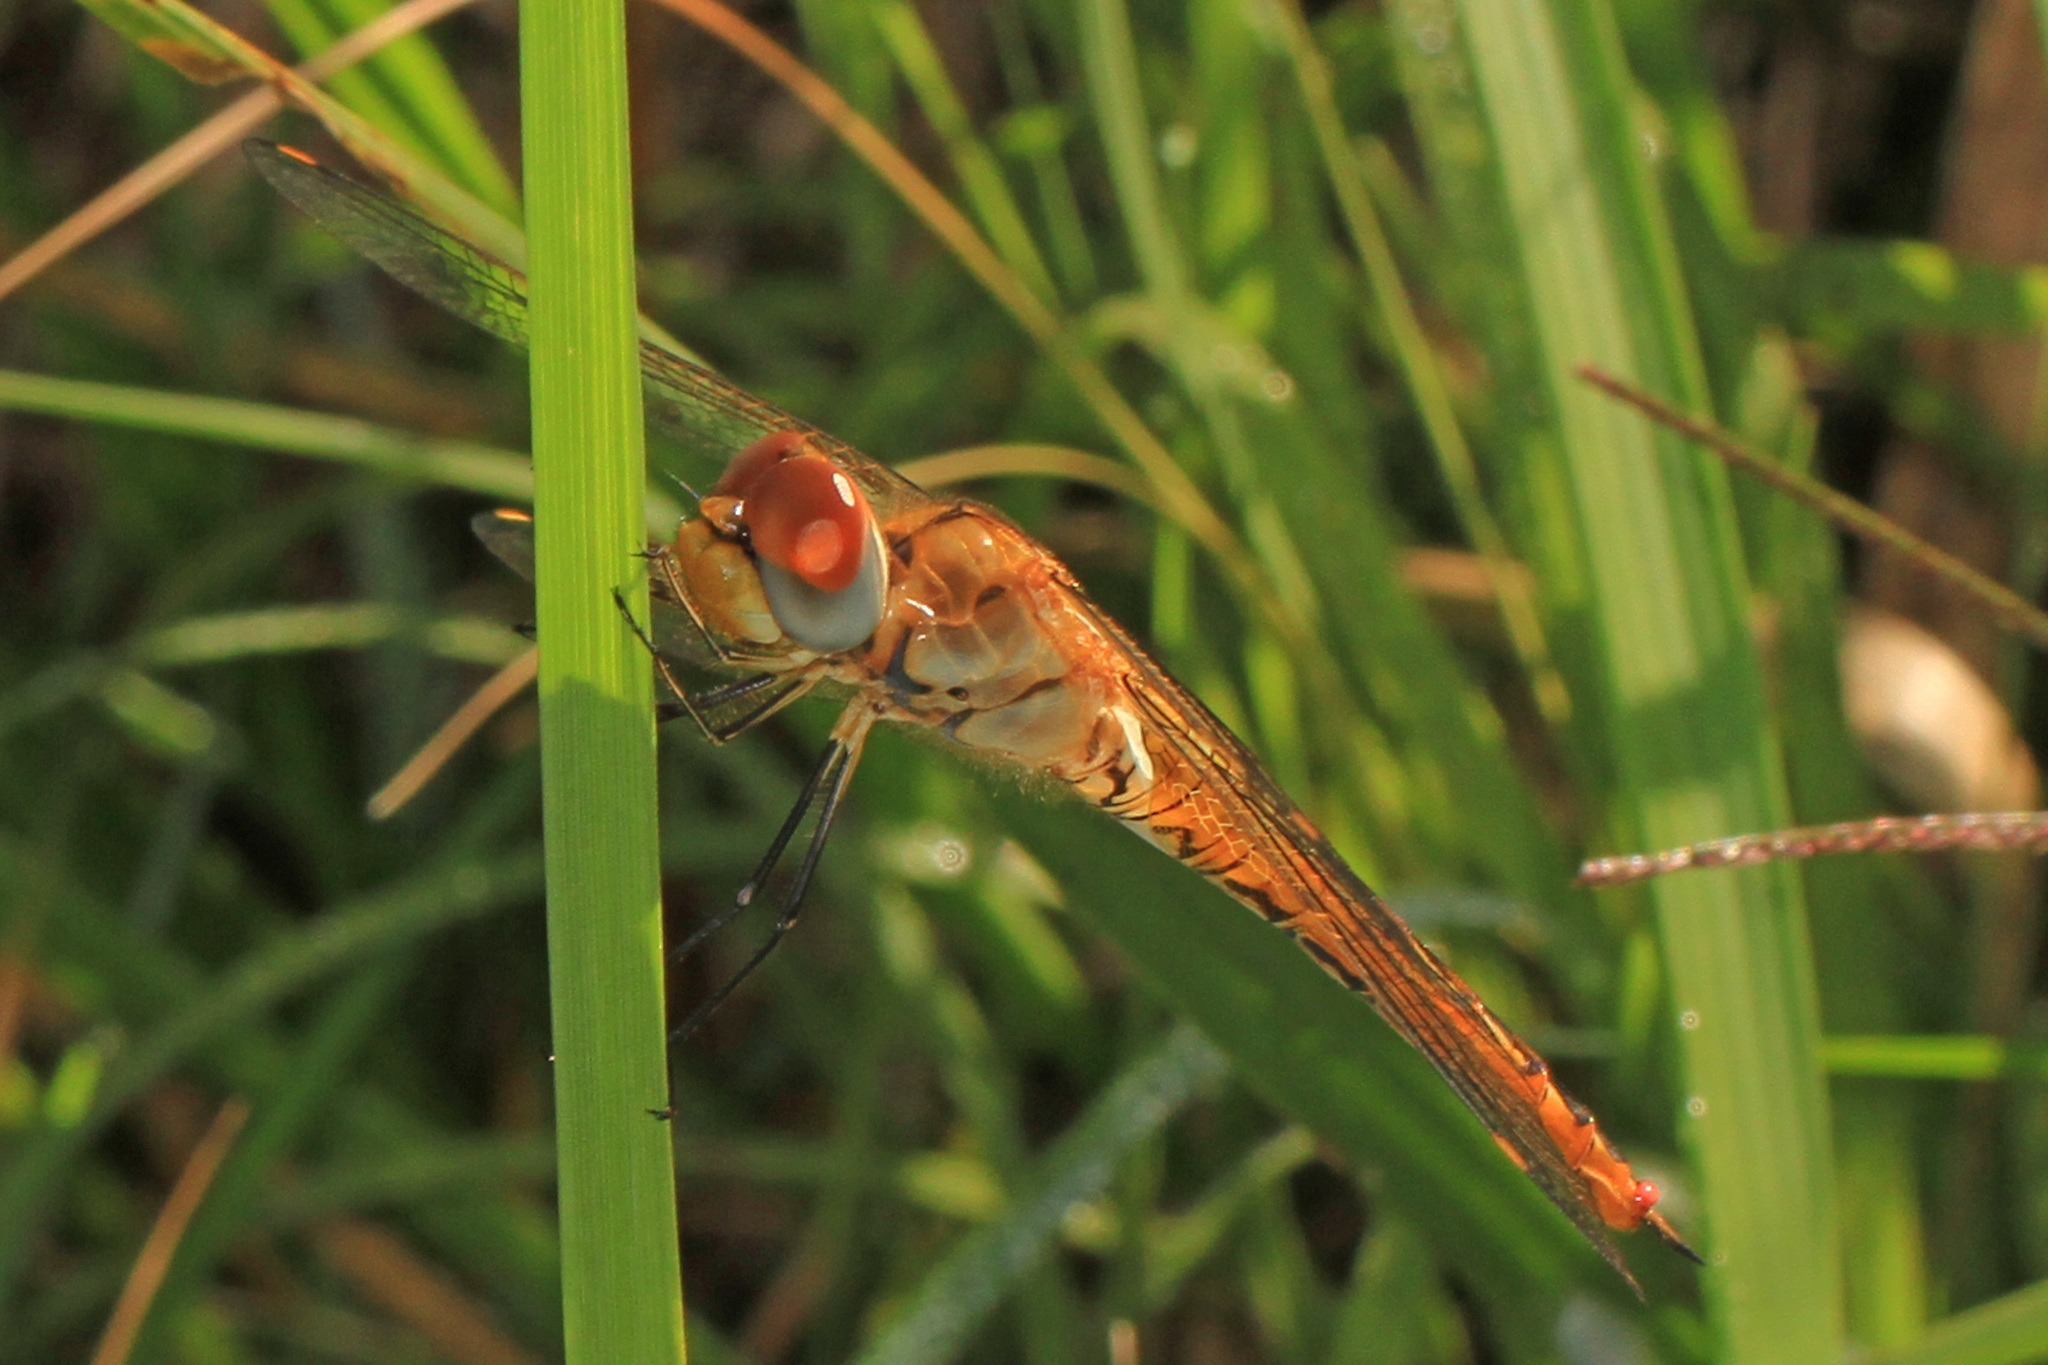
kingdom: Animalia
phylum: Arthropoda
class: Insecta
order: Odonata
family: Libellulidae
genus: Pantala
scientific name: Pantala flavescens
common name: Wandering glider
